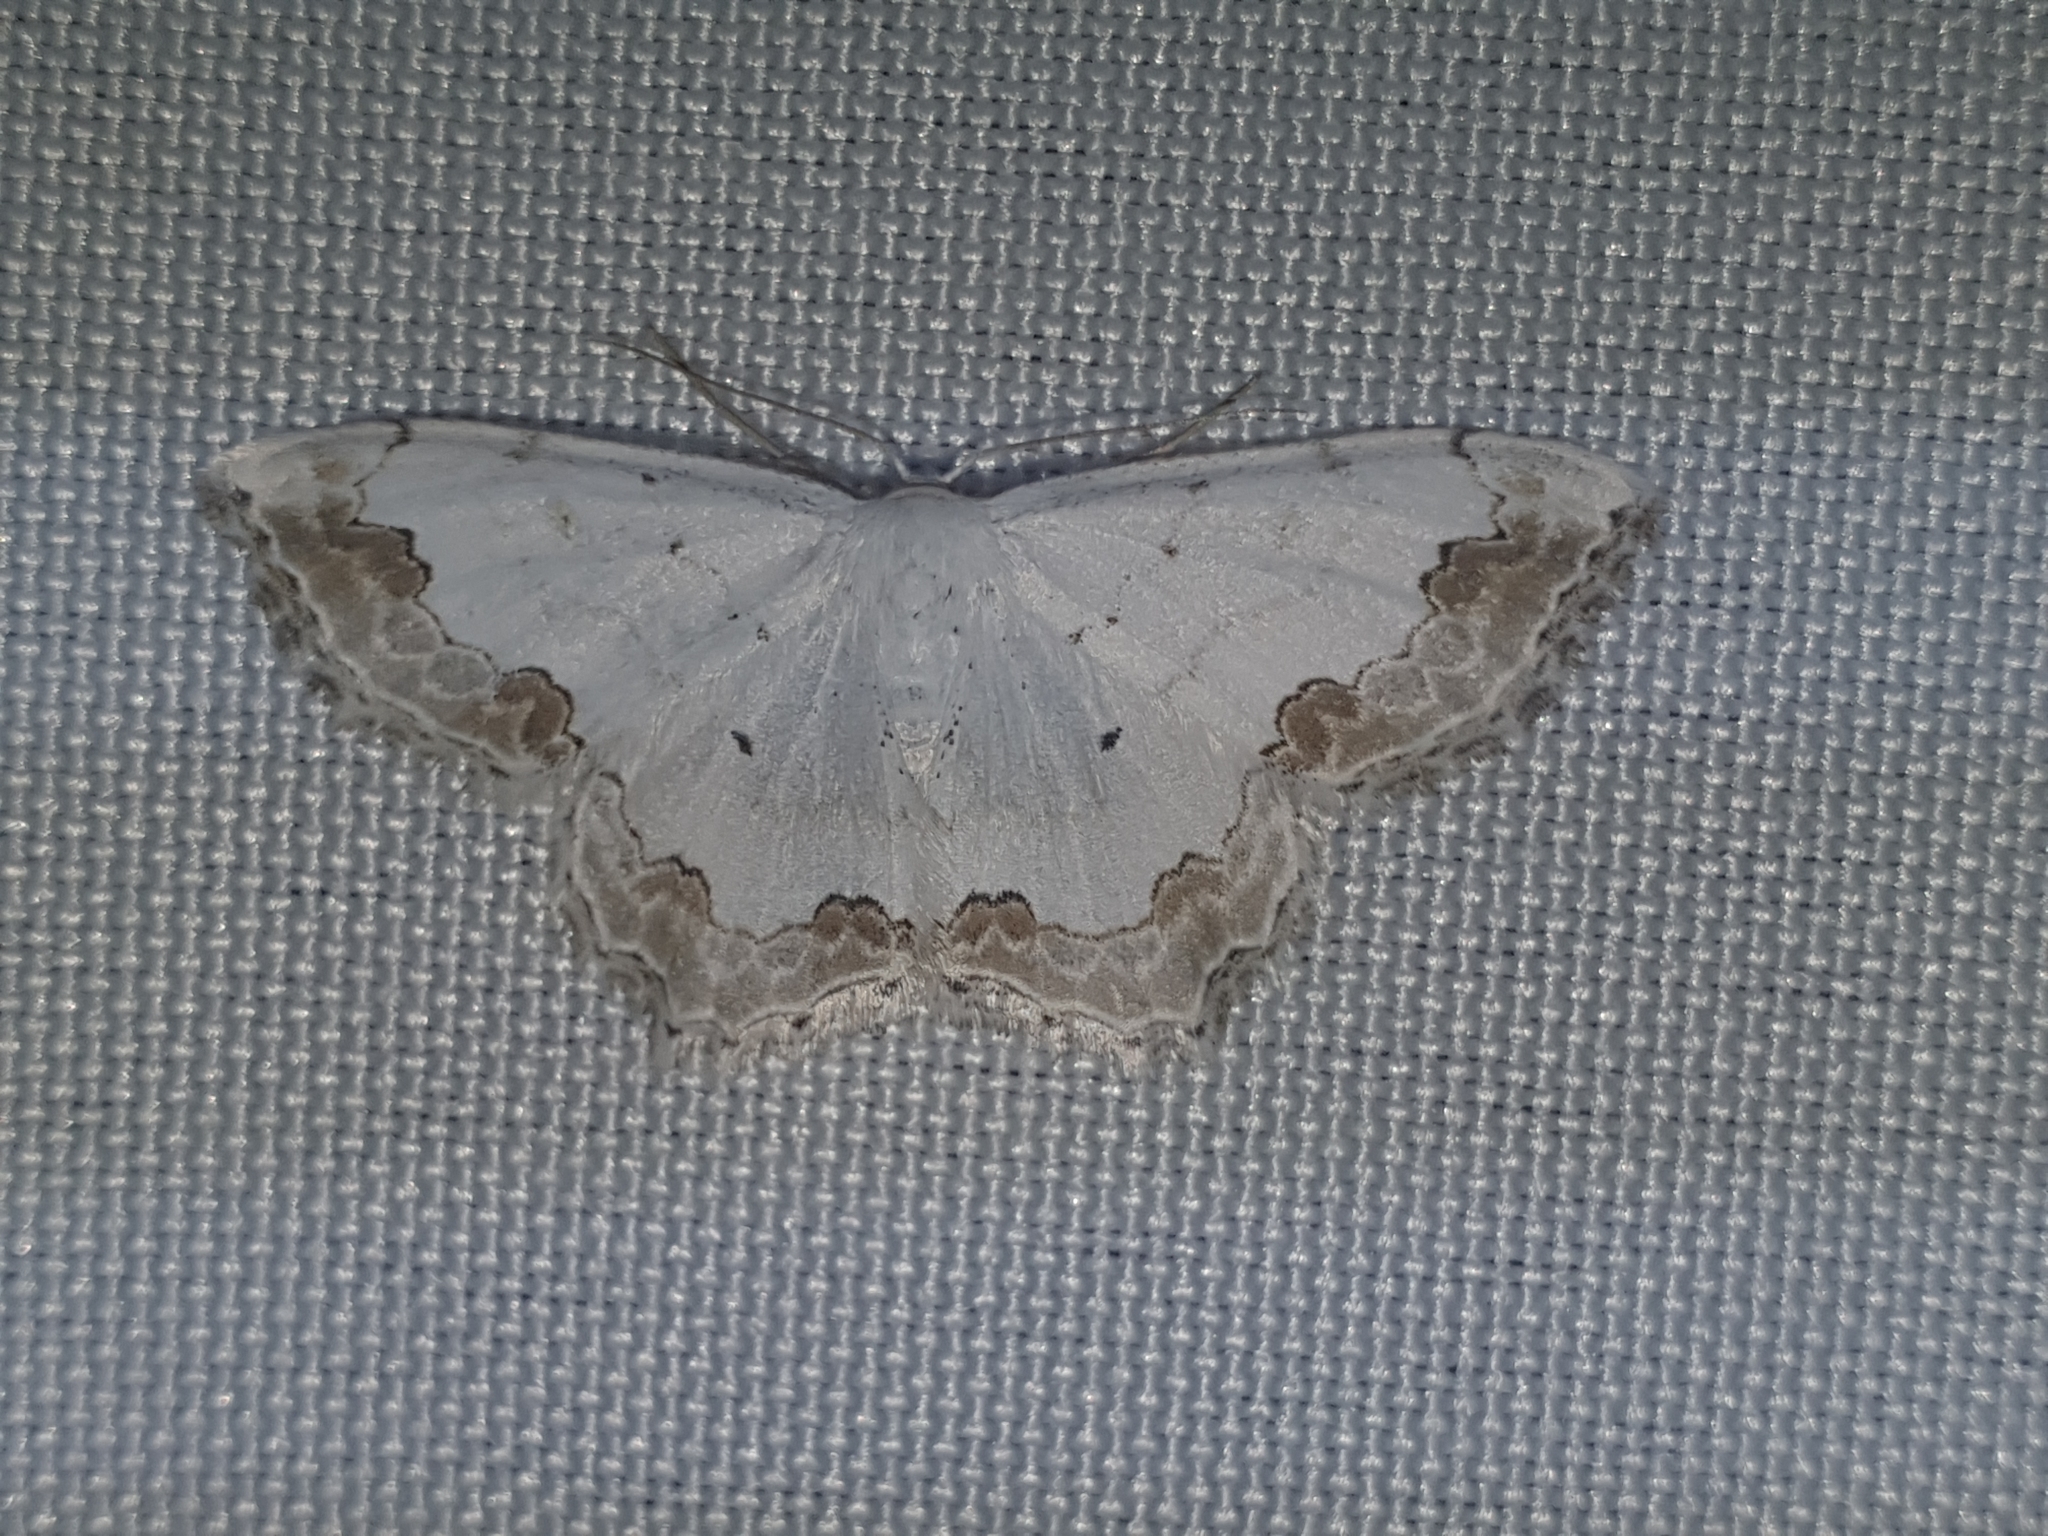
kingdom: Animalia
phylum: Arthropoda
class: Insecta
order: Lepidoptera
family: Geometridae
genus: Scopula
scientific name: Scopula ornata
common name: Lace border
